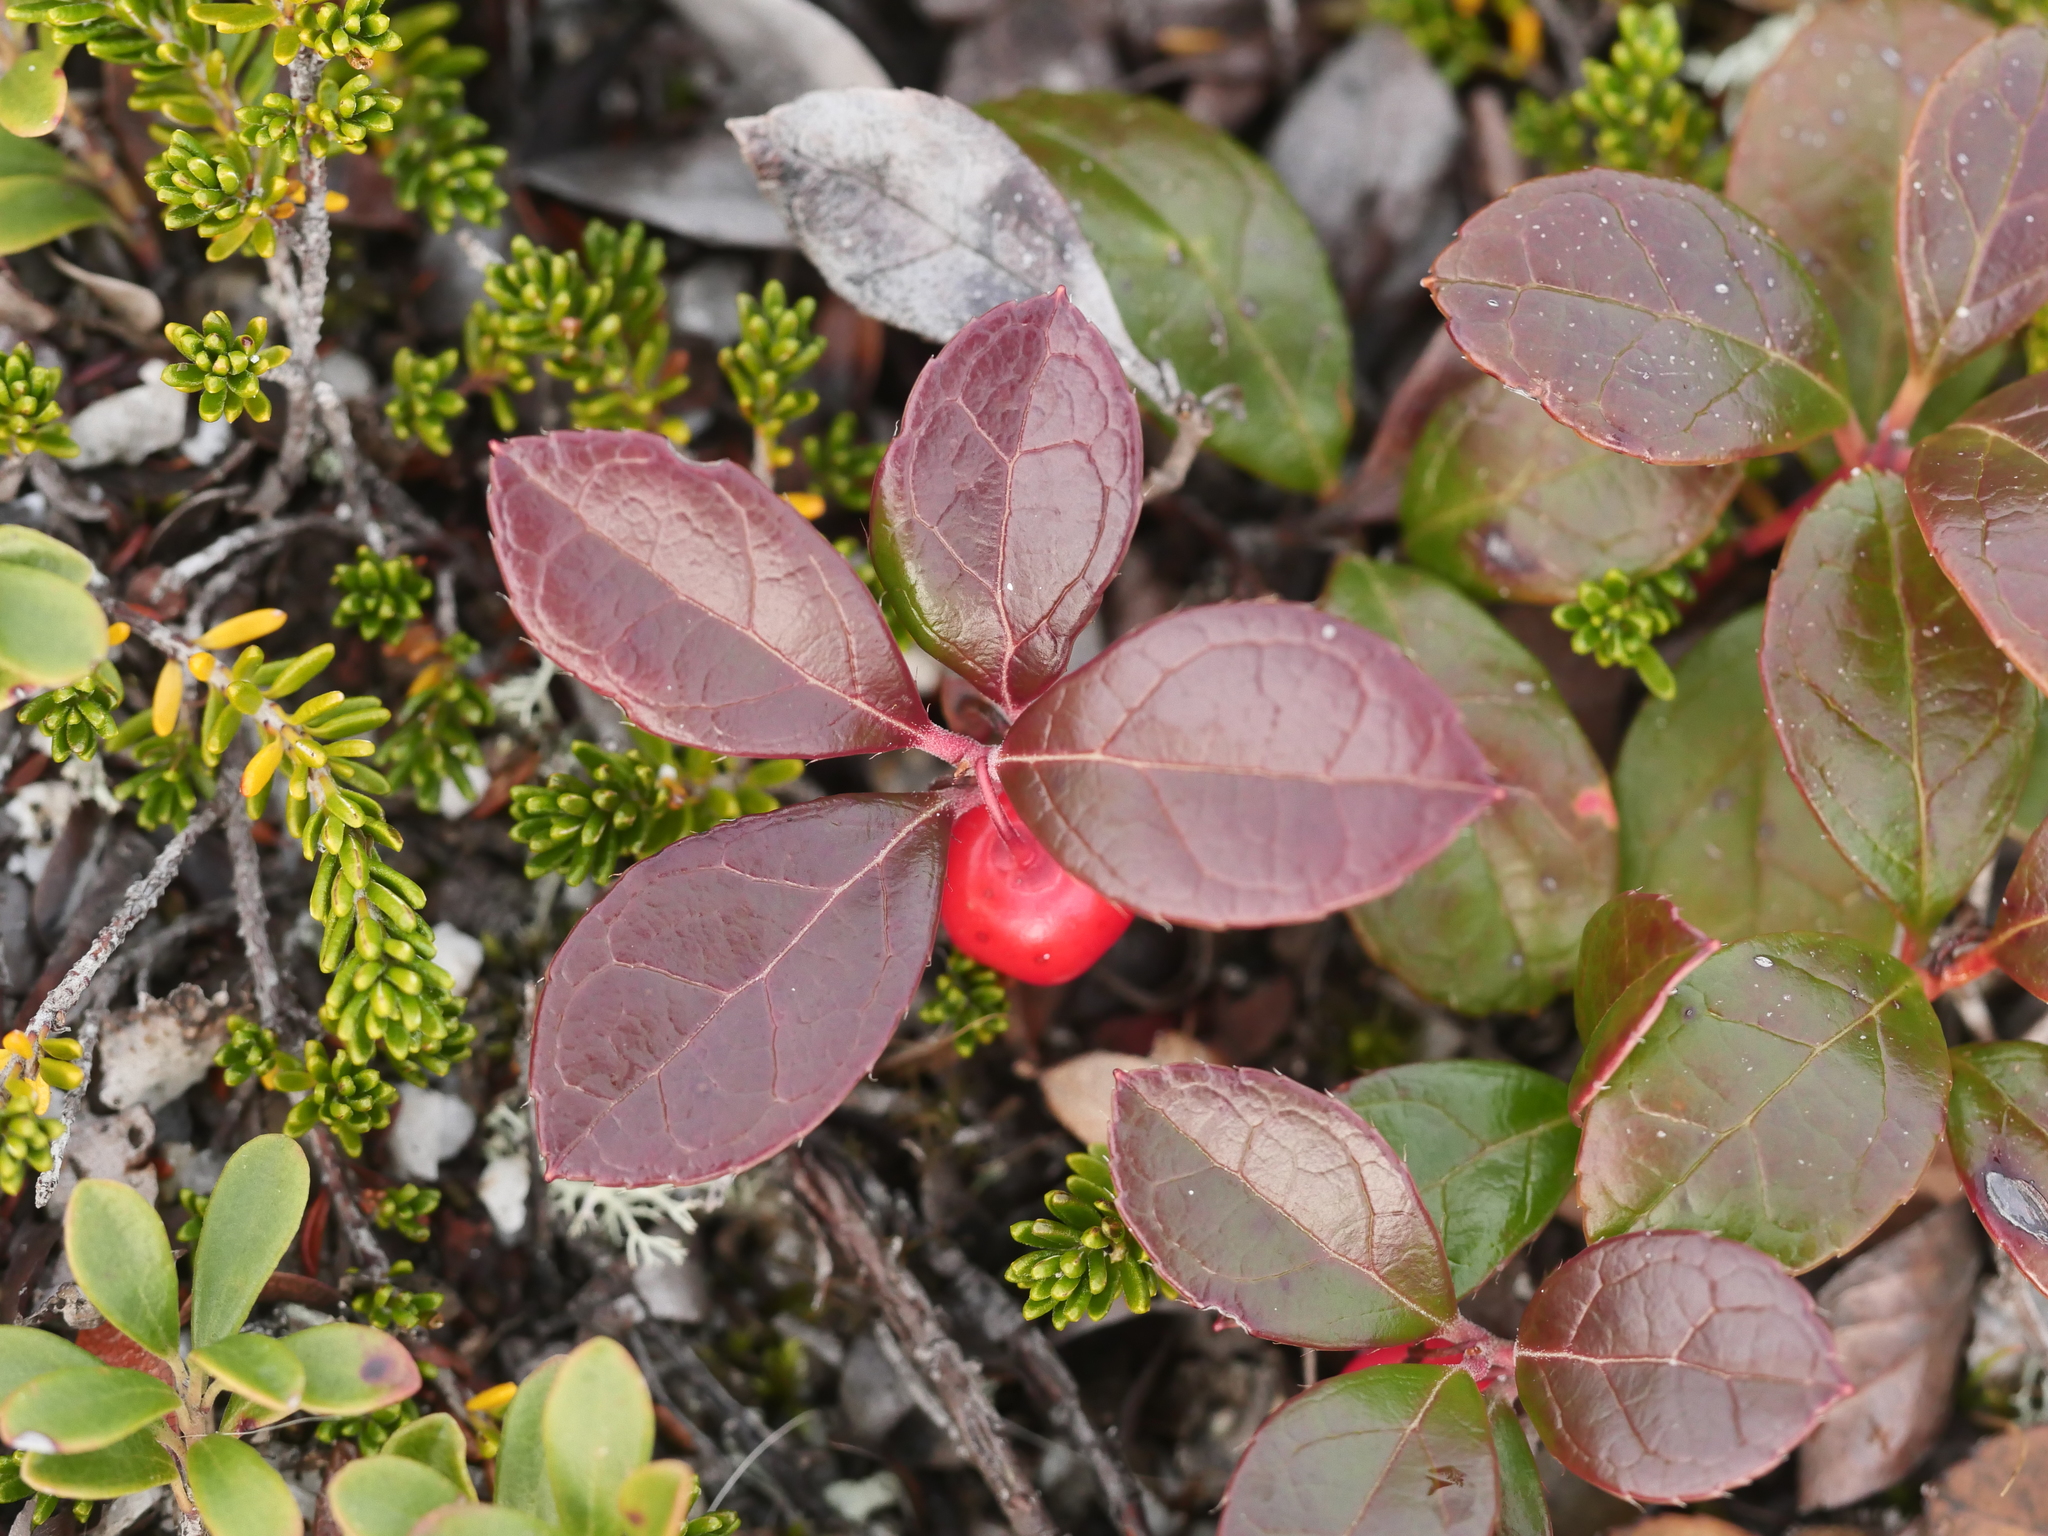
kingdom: Plantae
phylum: Tracheophyta
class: Magnoliopsida
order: Ericales
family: Ericaceae
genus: Gaultheria
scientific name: Gaultheria procumbens
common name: Checkerberry
